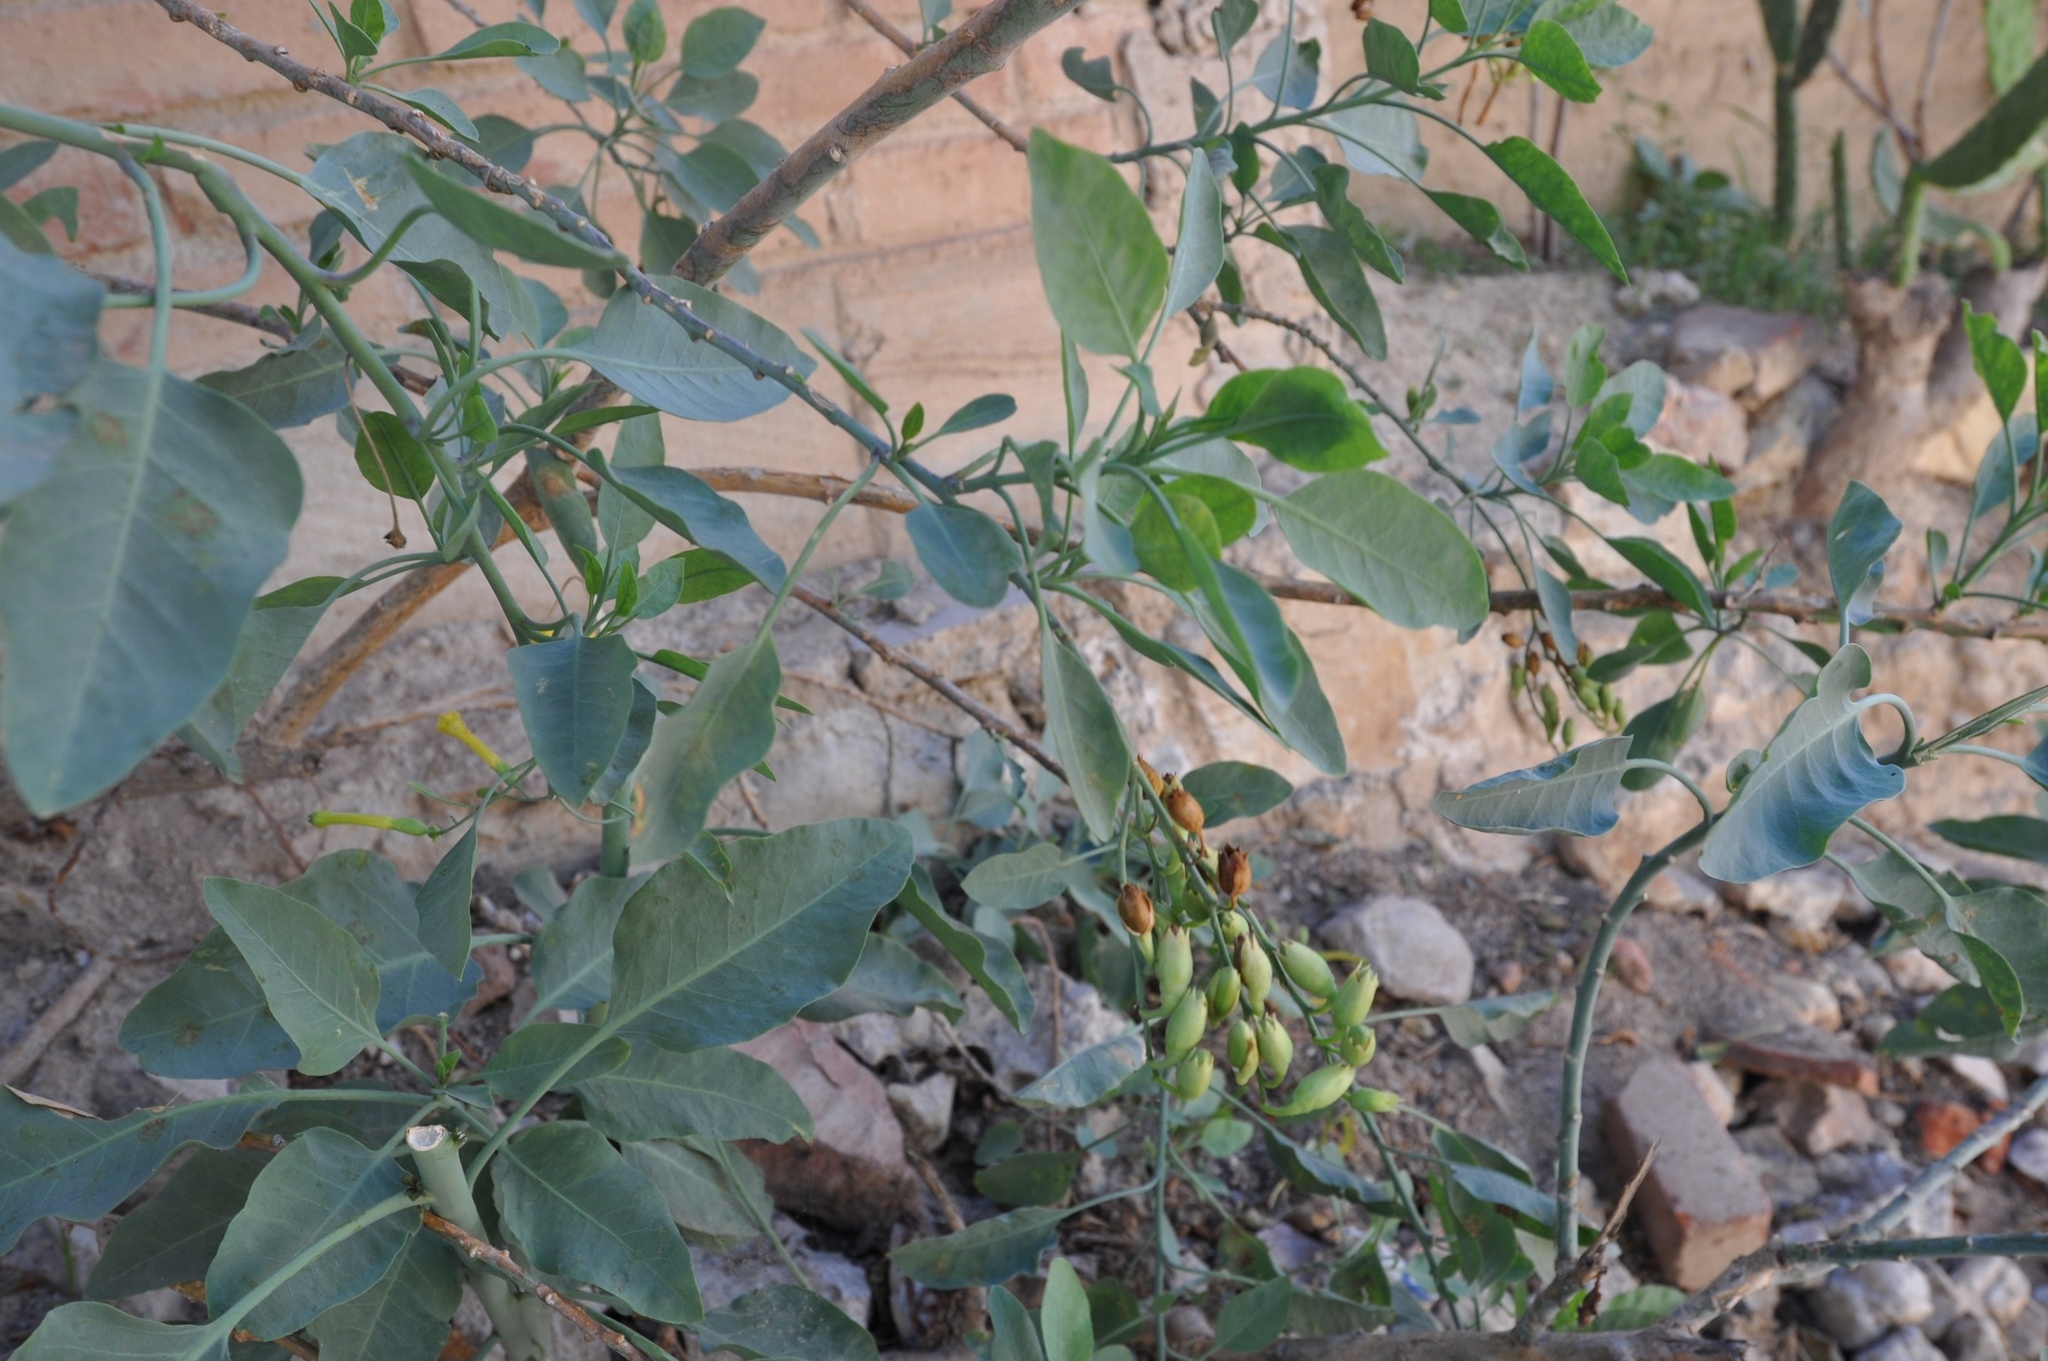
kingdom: Plantae
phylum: Tracheophyta
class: Magnoliopsida
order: Solanales
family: Solanaceae
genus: Nicotiana
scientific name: Nicotiana glauca
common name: Tree tobacco
